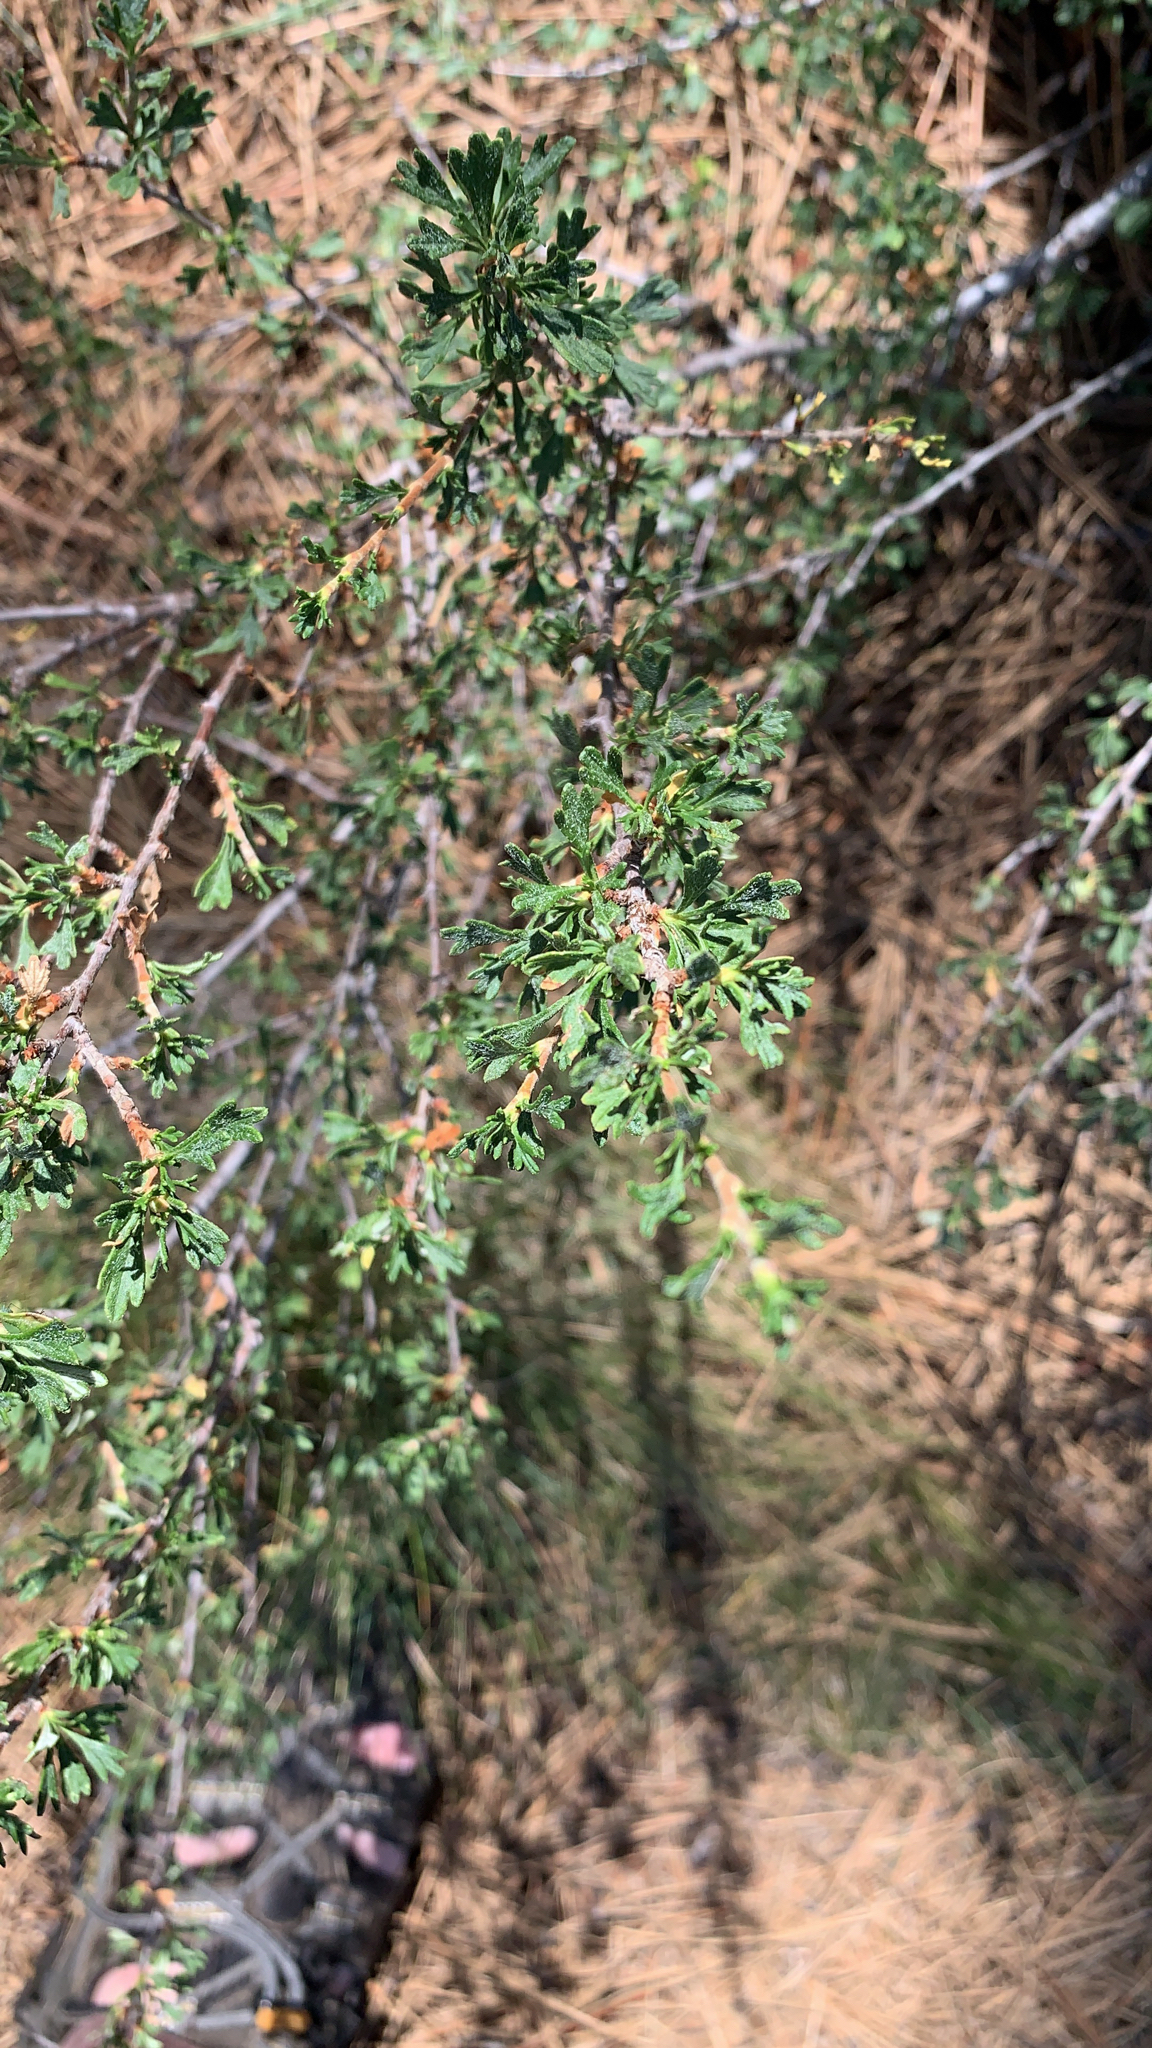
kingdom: Plantae
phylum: Tracheophyta
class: Magnoliopsida
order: Rosales
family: Rosaceae
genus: Purshia
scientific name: Purshia tridentata
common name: Antelope bitterbrush
